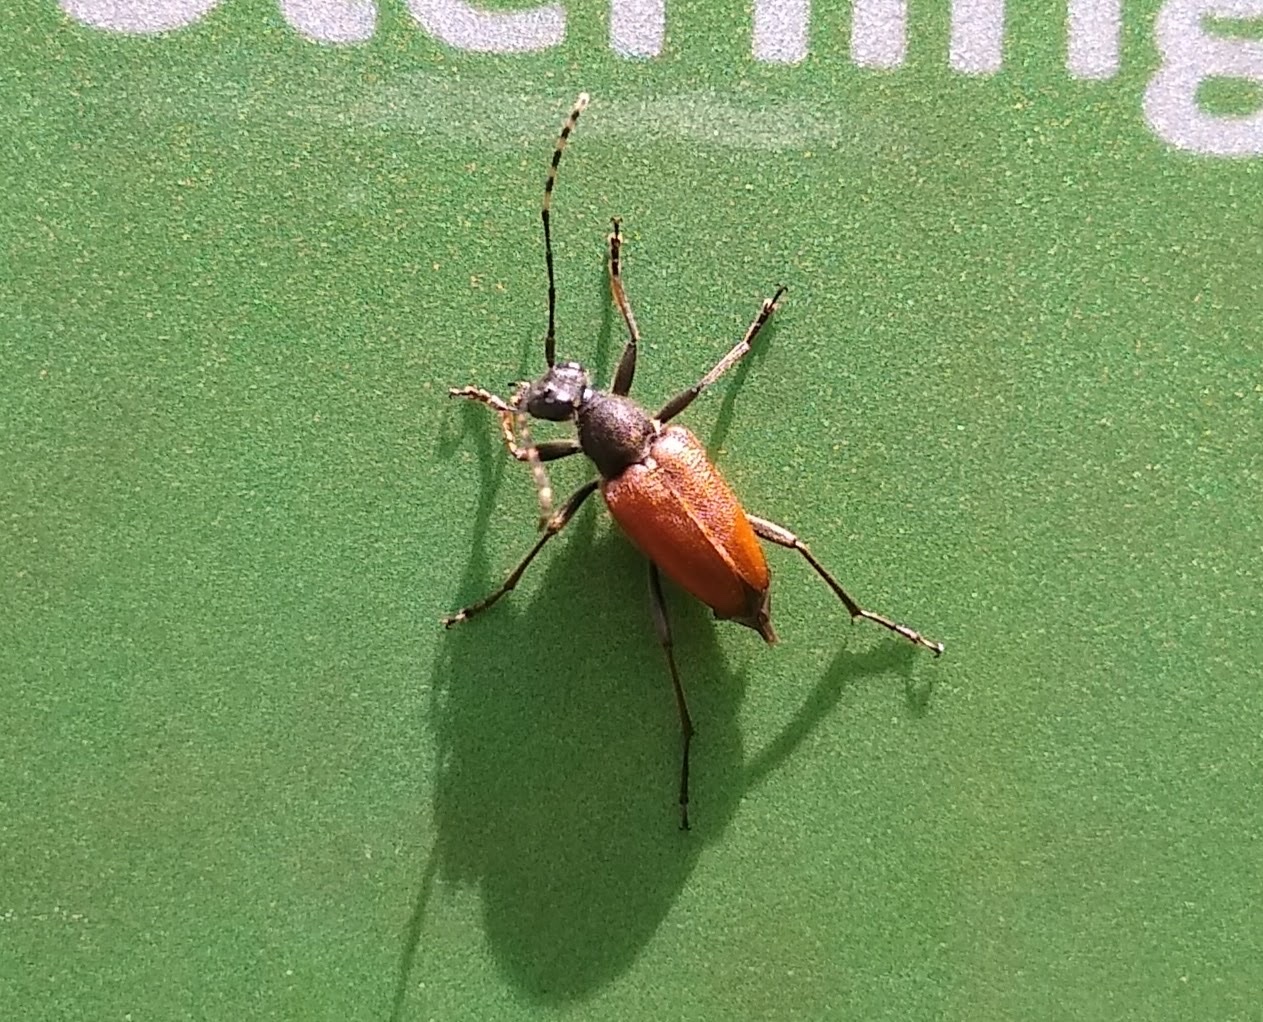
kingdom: Animalia
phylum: Arthropoda
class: Insecta
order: Coleoptera
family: Cerambycidae
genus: Brachyleptura
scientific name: Brachyleptura rubrica
